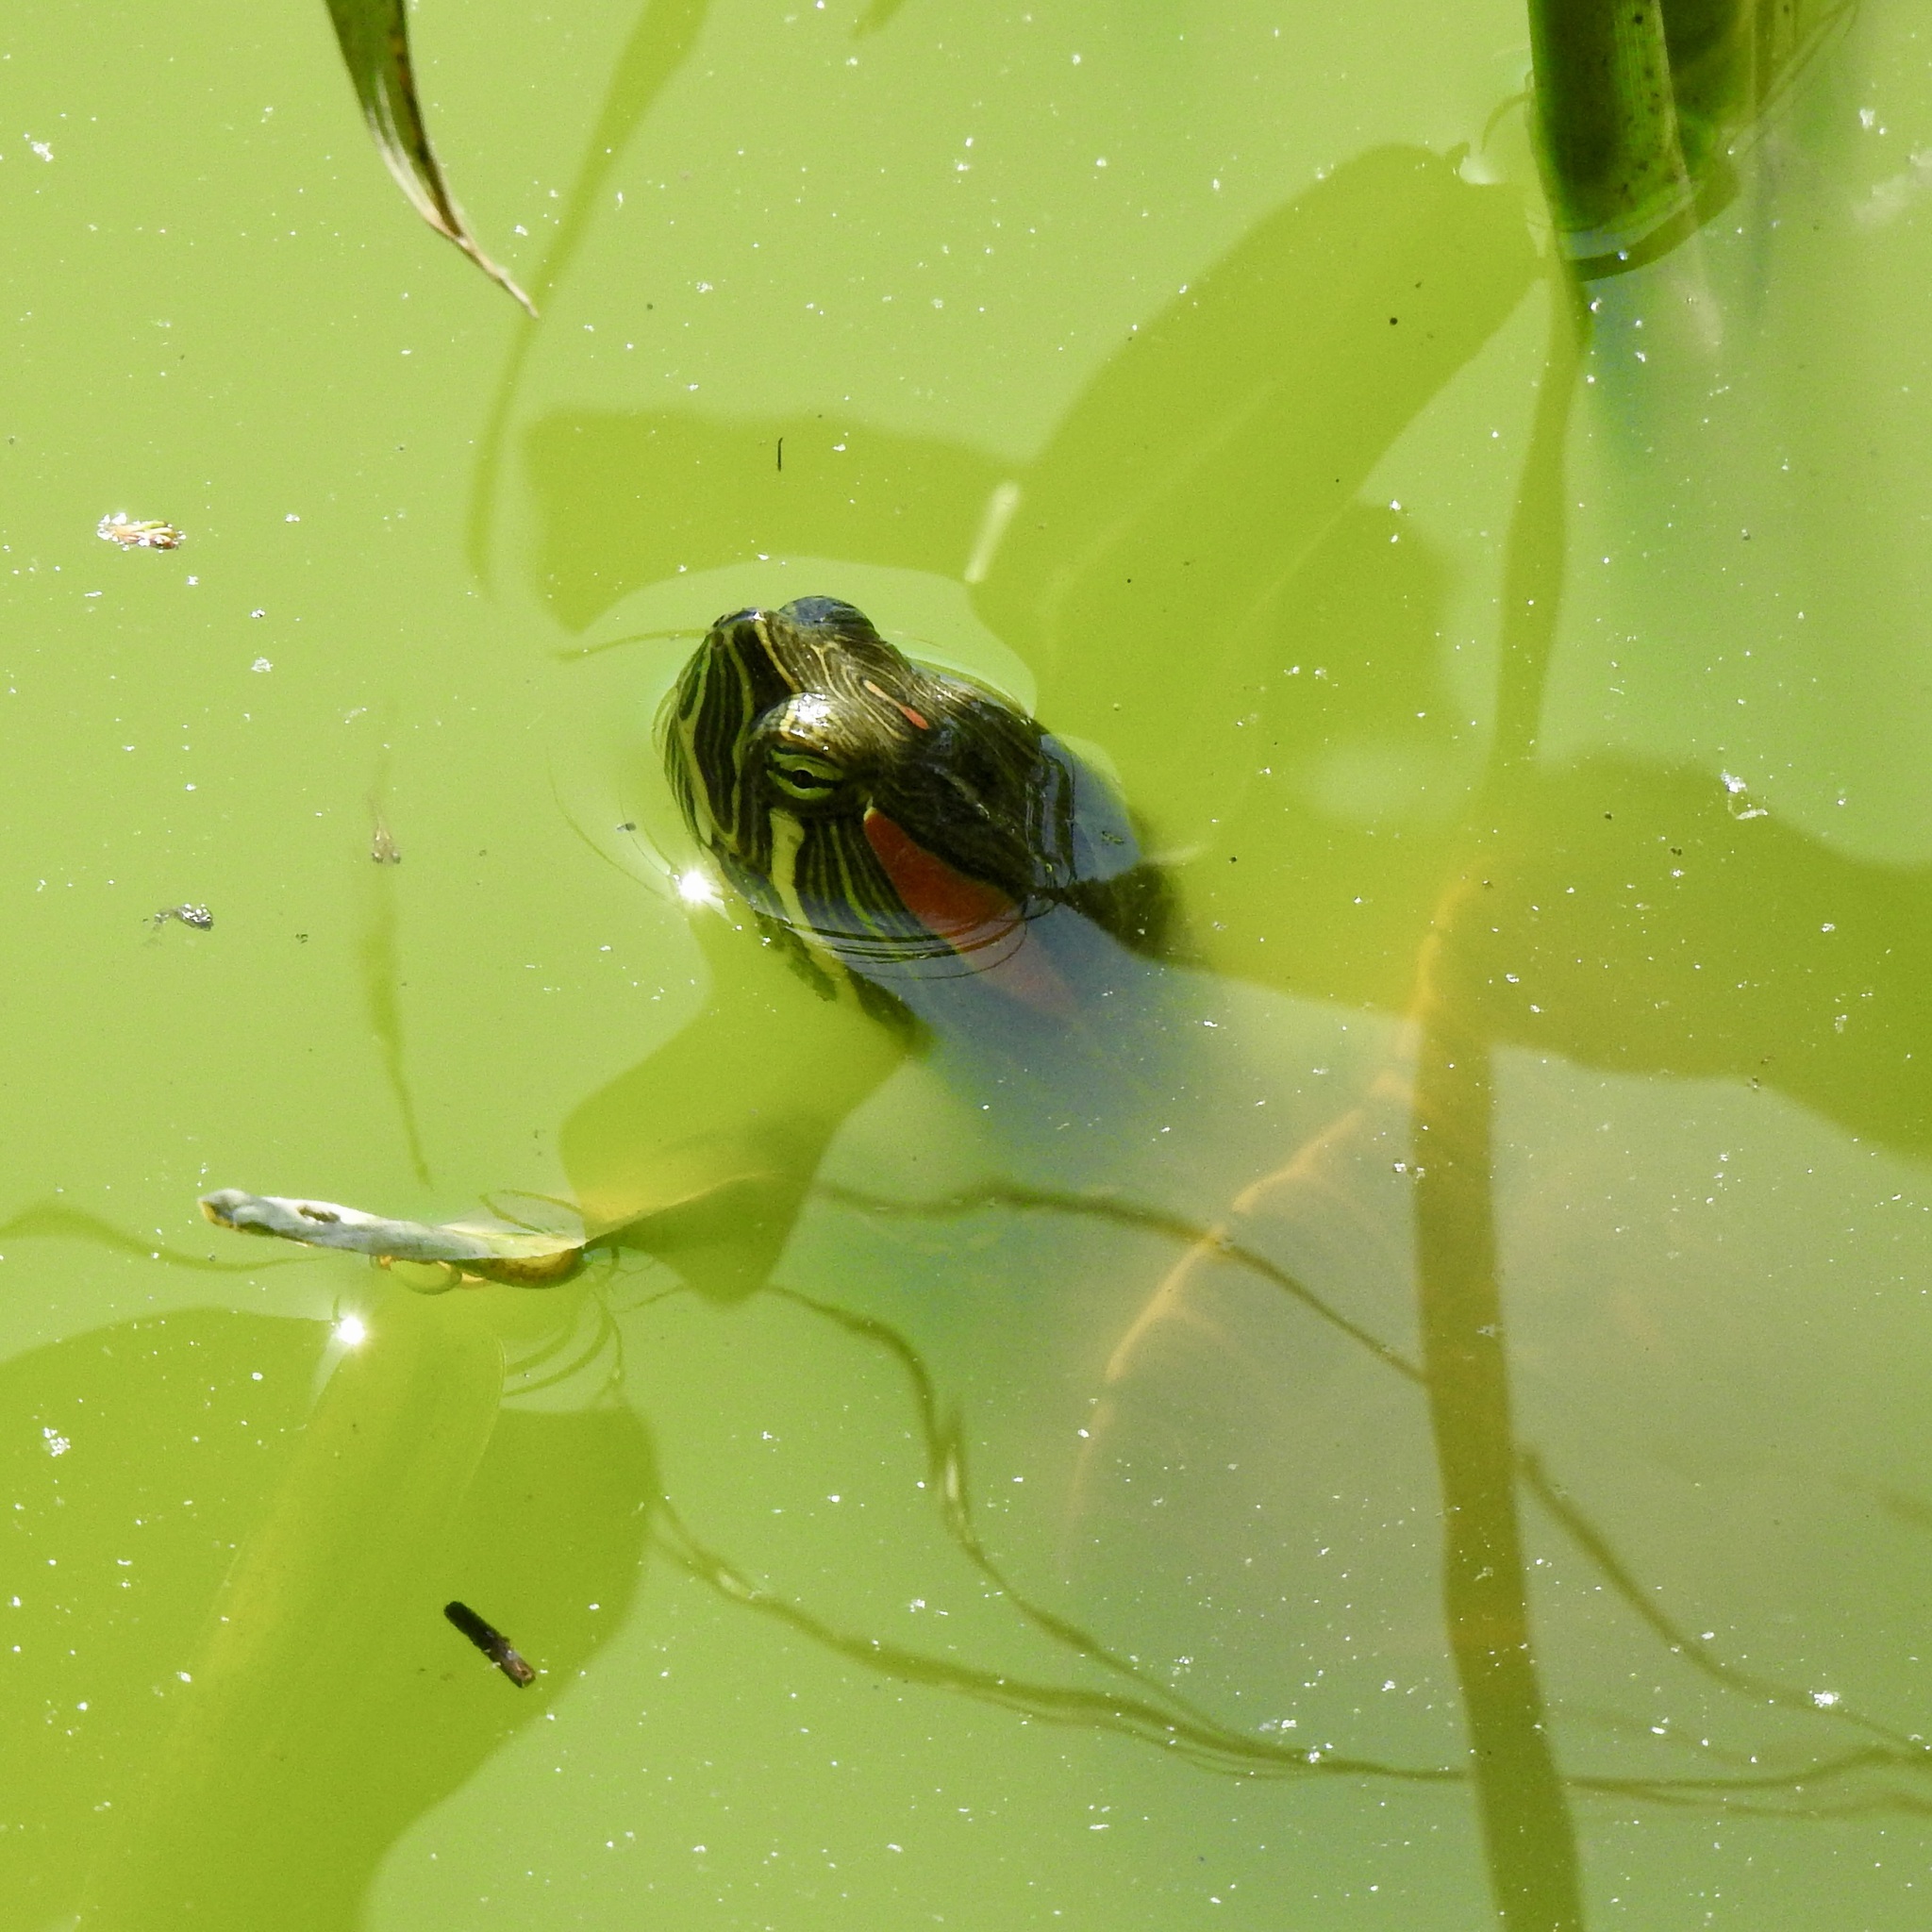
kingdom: Animalia
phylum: Chordata
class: Testudines
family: Emydidae
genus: Trachemys
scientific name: Trachemys scripta
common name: Slider
